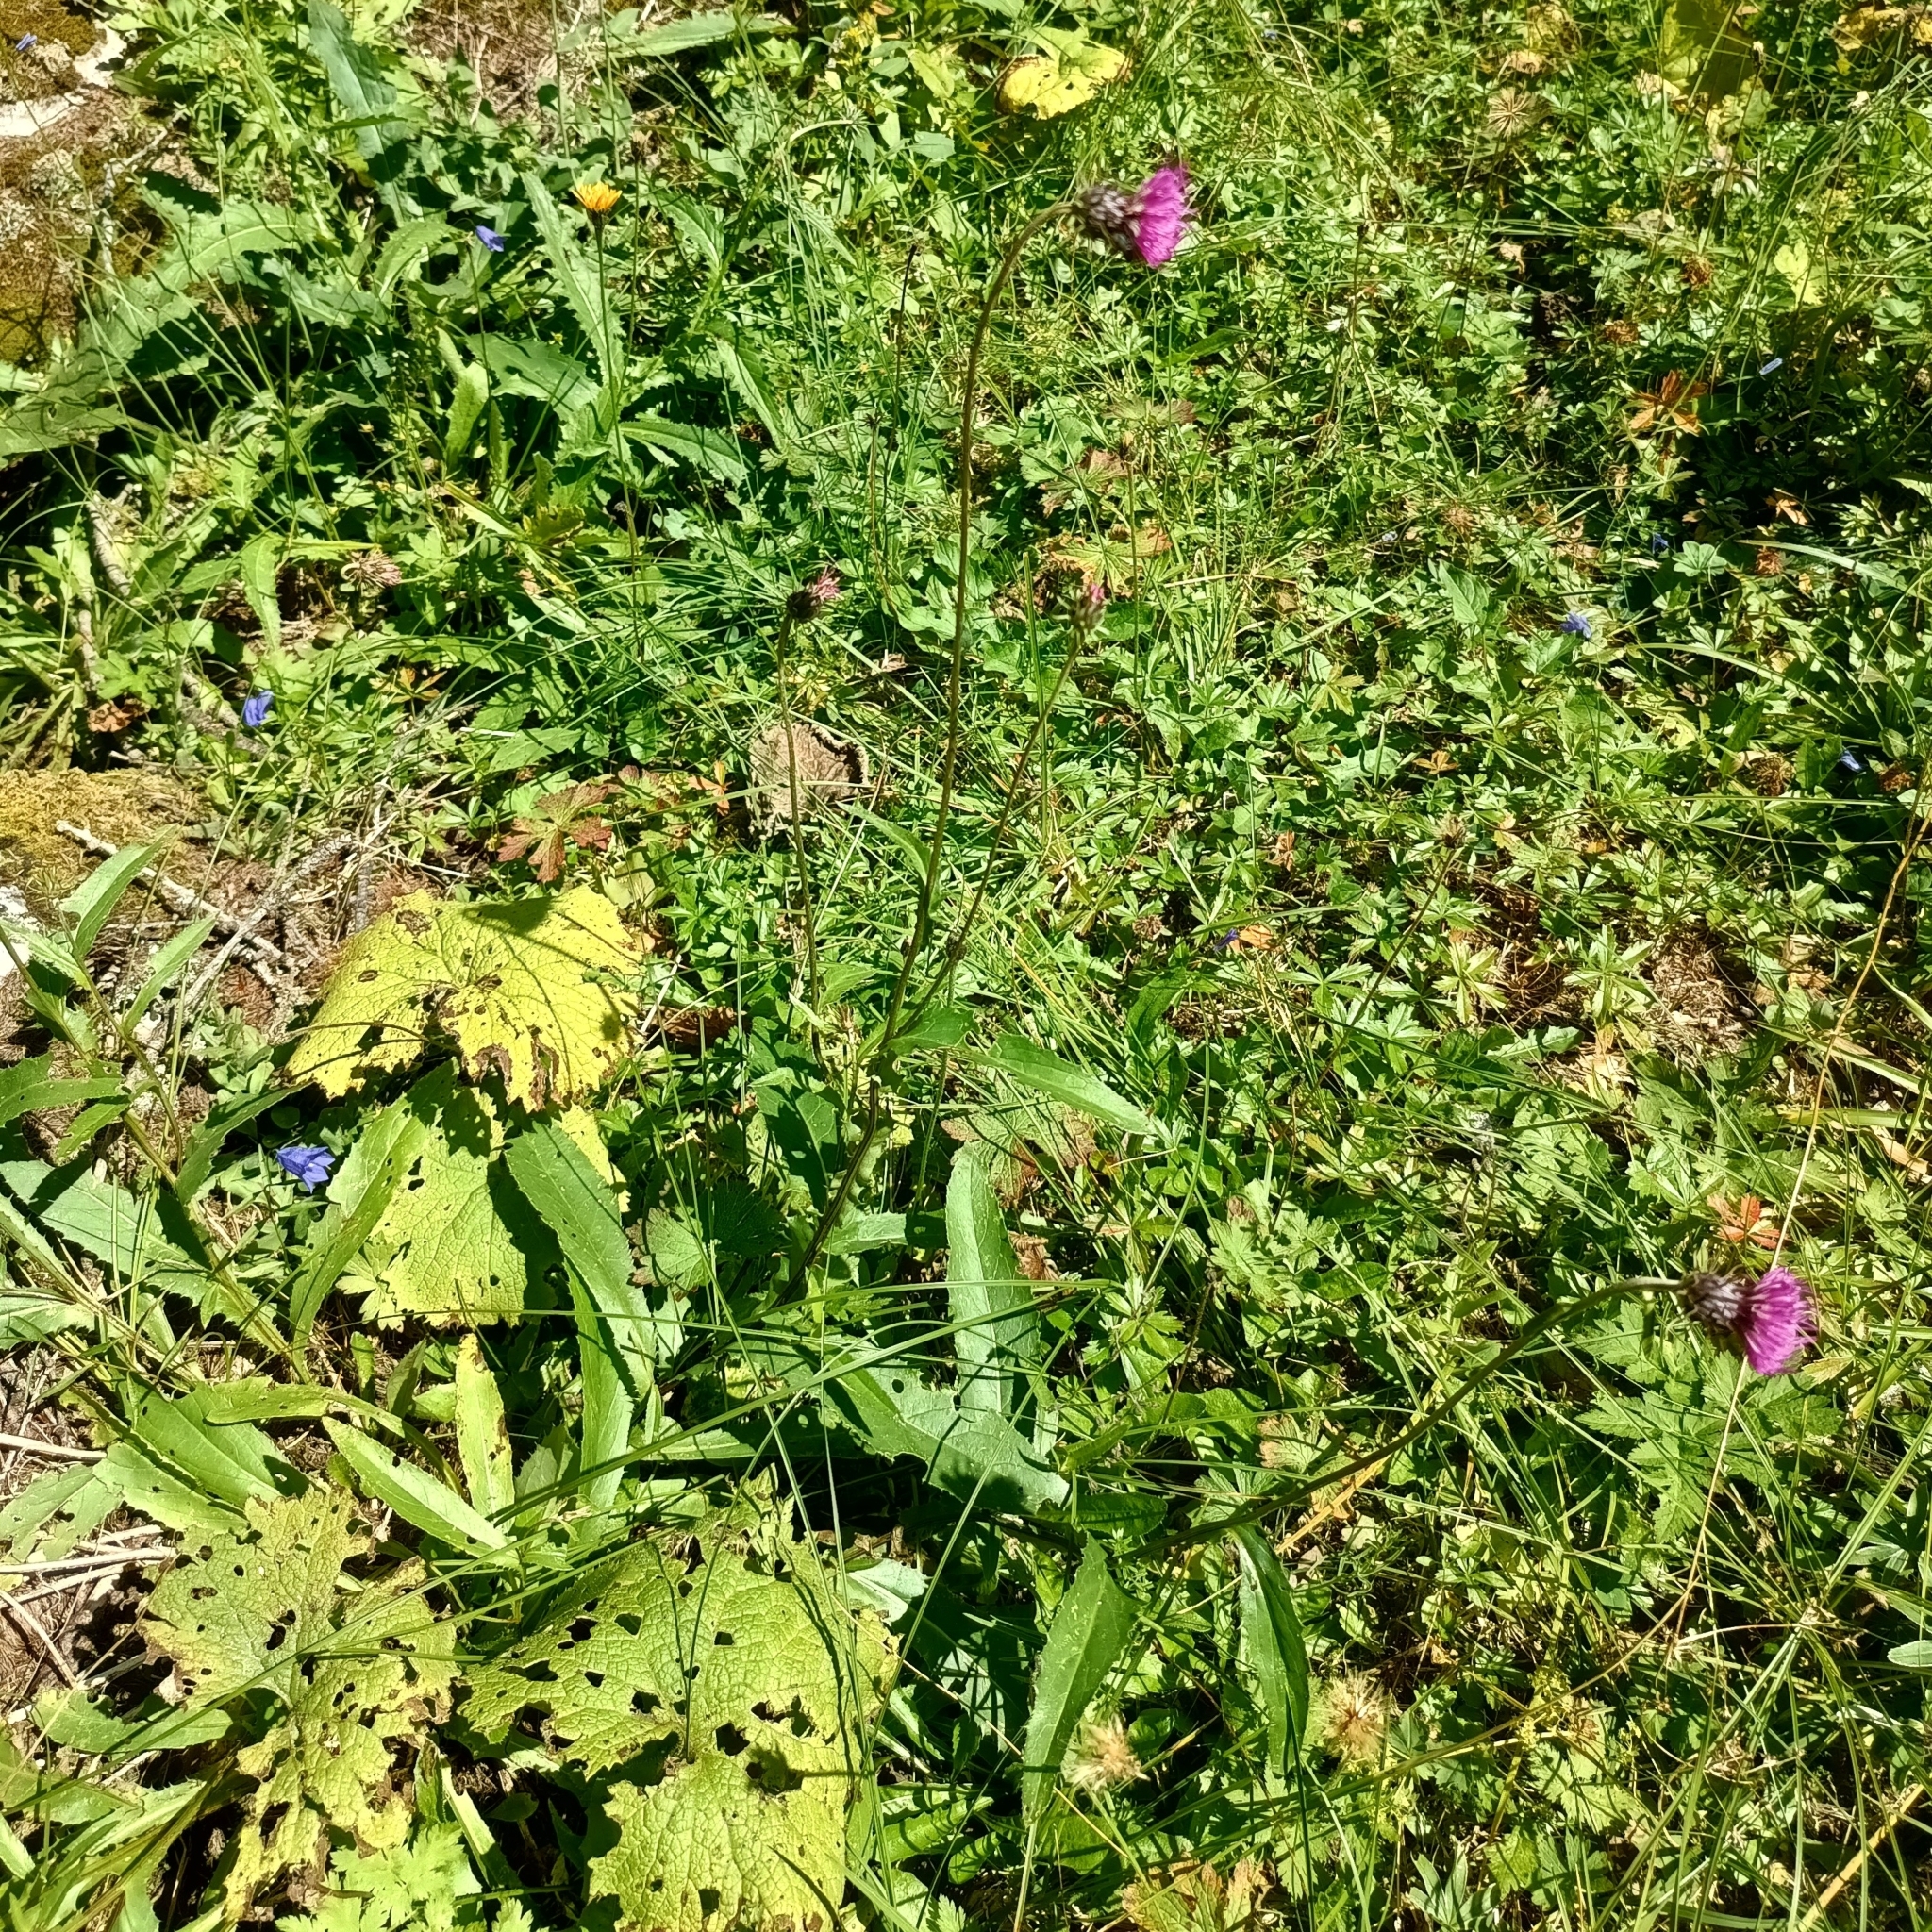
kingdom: Plantae
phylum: Tracheophyta
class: Magnoliopsida
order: Asterales
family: Asteraceae
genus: Carduus
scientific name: Carduus defloratus
